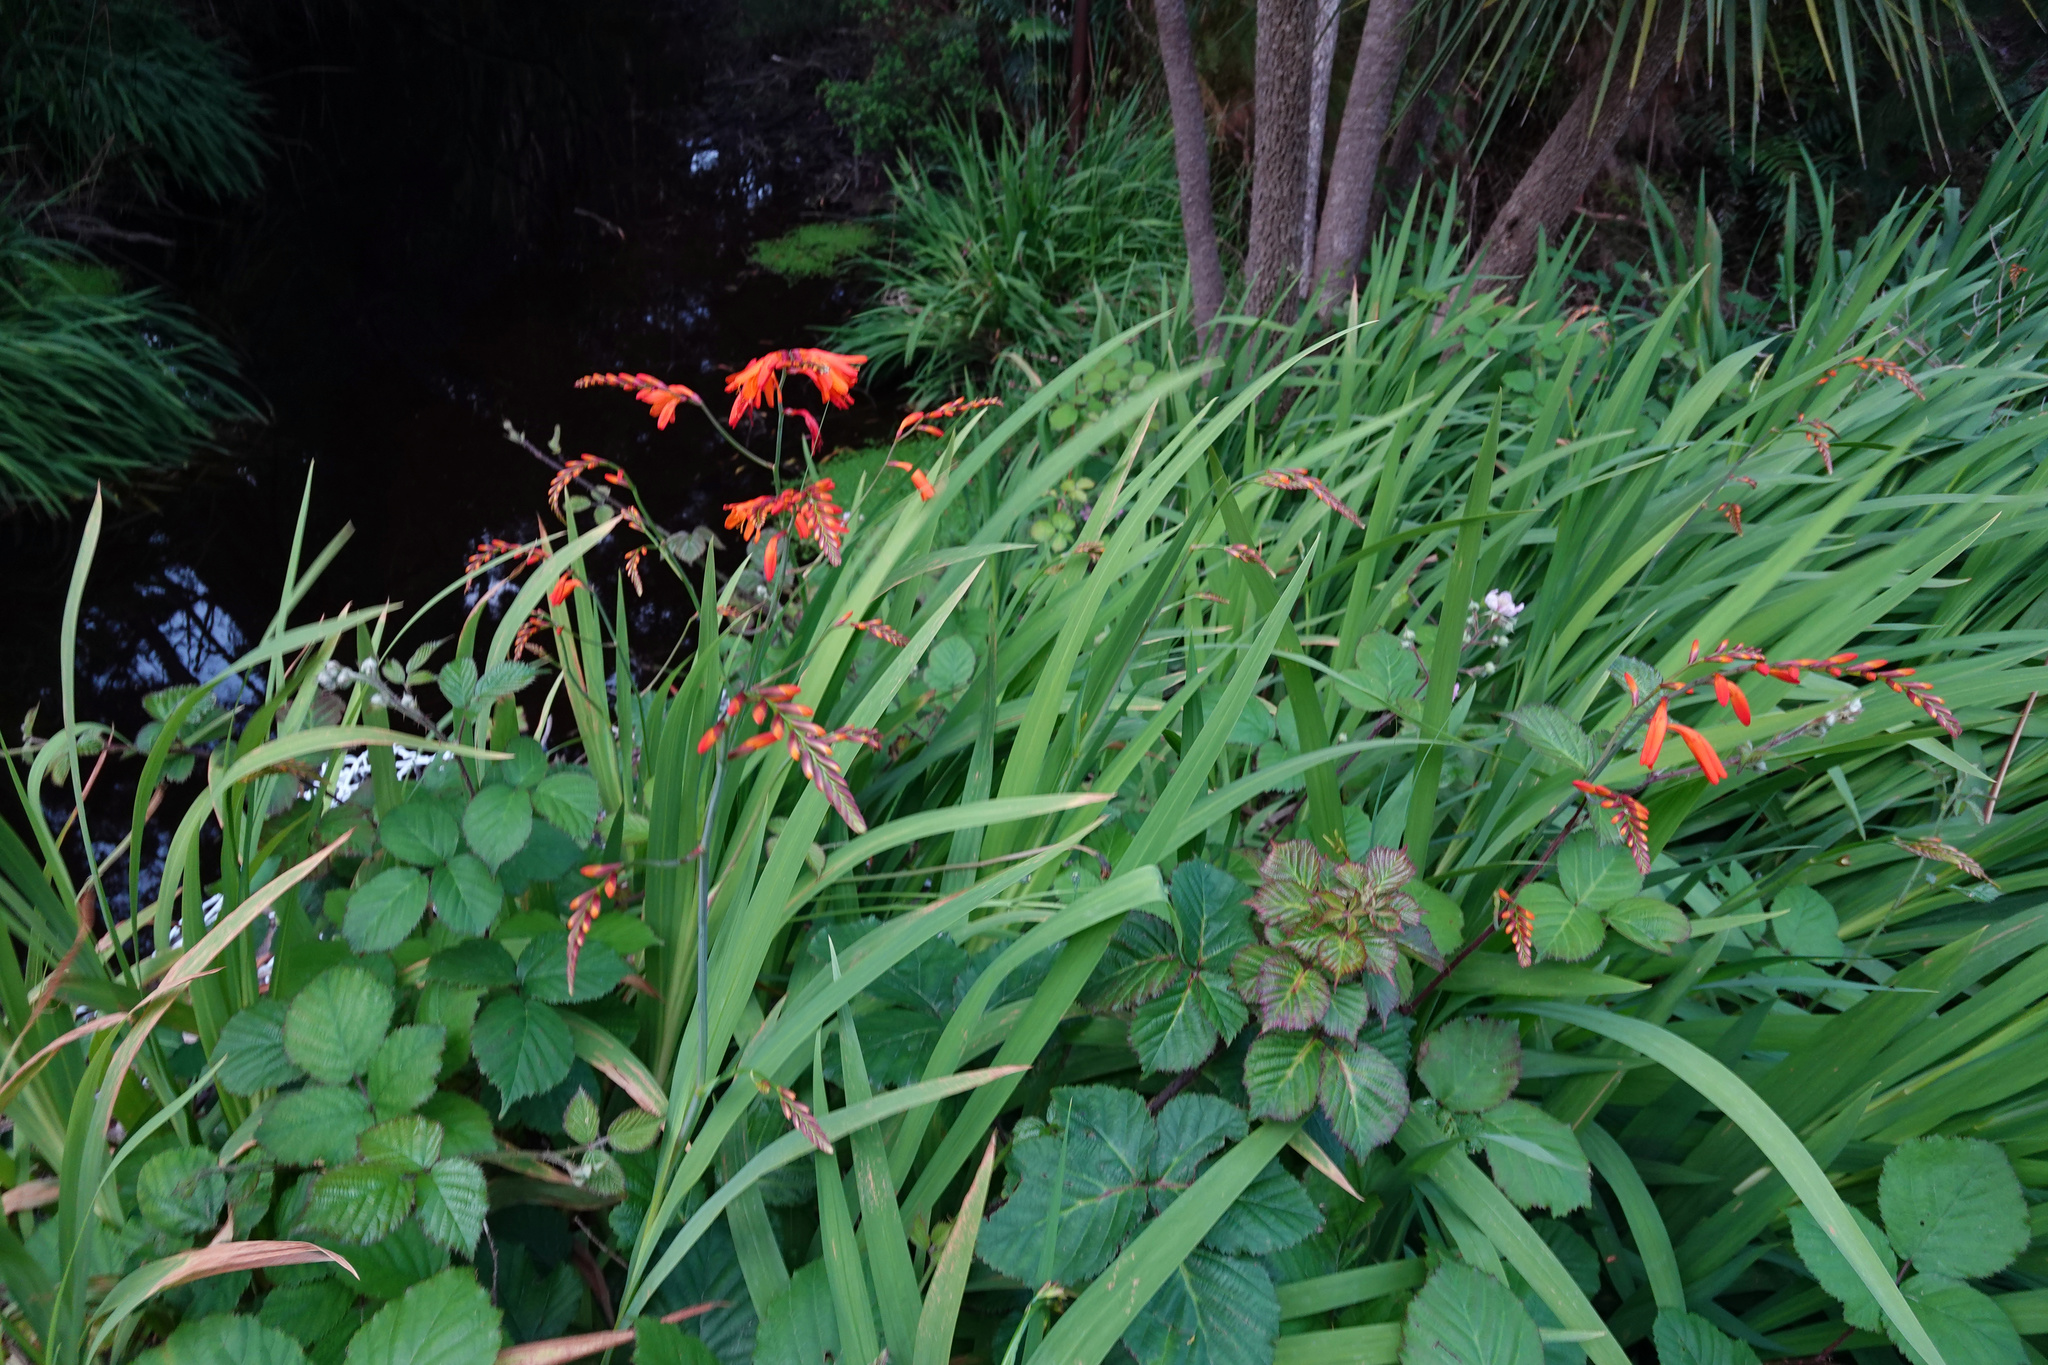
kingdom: Plantae
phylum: Tracheophyta
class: Liliopsida
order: Asparagales
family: Iridaceae
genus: Crocosmia
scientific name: Crocosmia crocosmiiflora
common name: Montbretia
